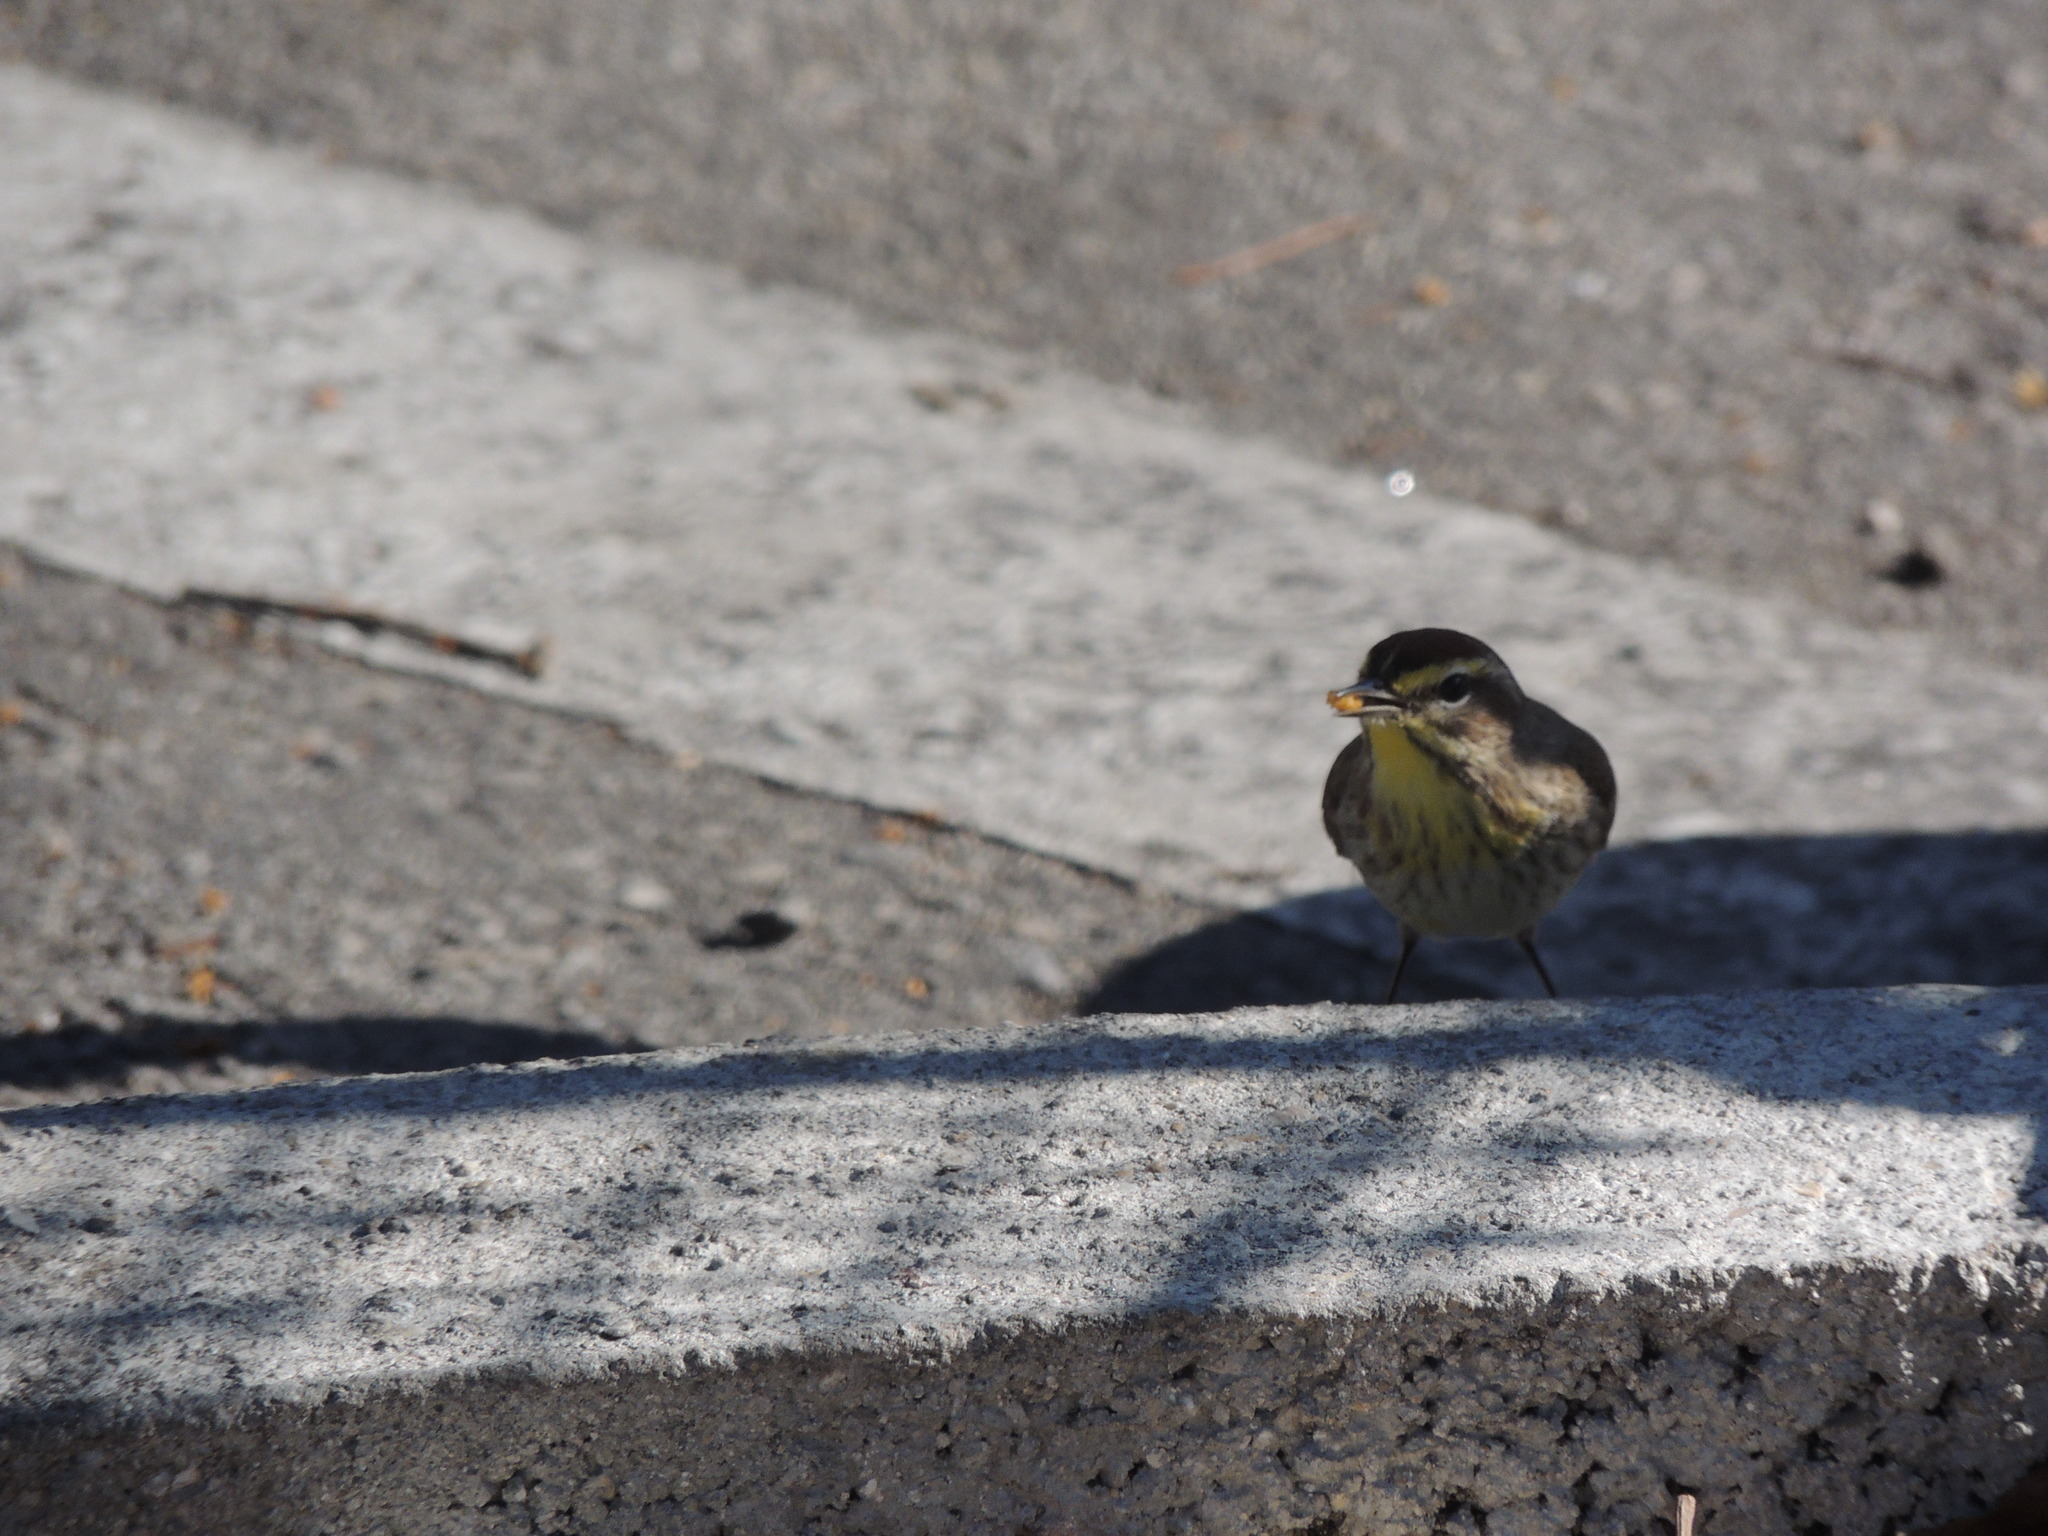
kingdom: Animalia
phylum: Chordata
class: Aves
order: Passeriformes
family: Parulidae
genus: Setophaga
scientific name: Setophaga palmarum
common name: Palm warbler
